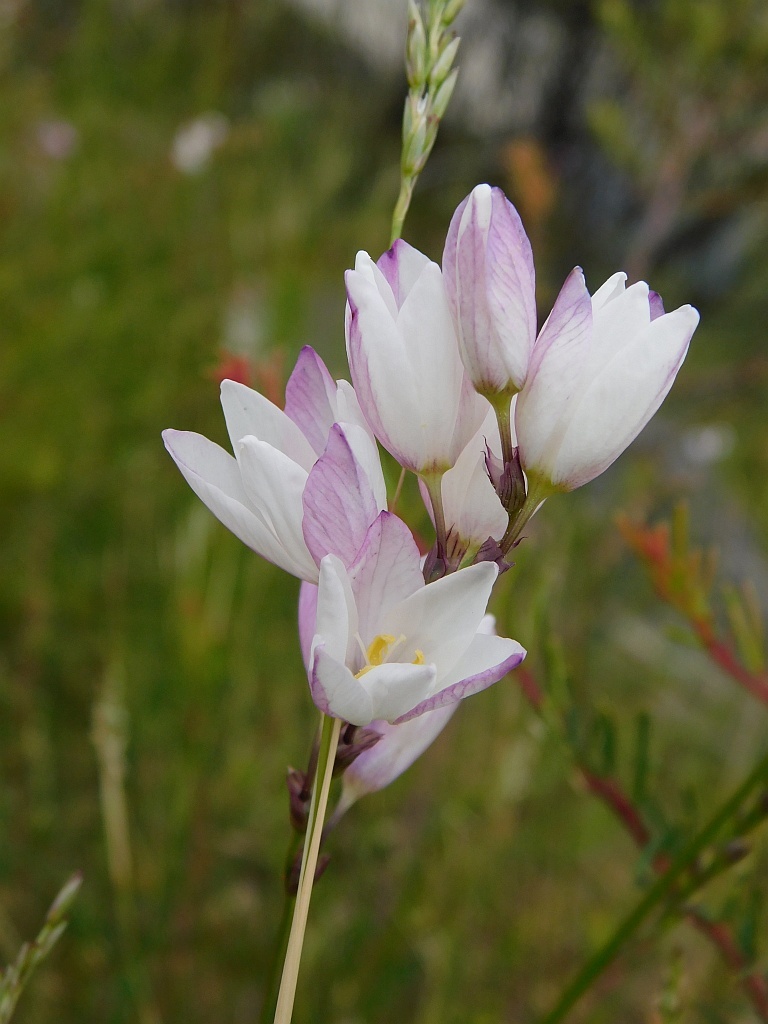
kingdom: Plantae
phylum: Tracheophyta
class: Liliopsida
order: Asparagales
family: Iridaceae
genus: Ixia
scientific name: Ixia flexuosa
